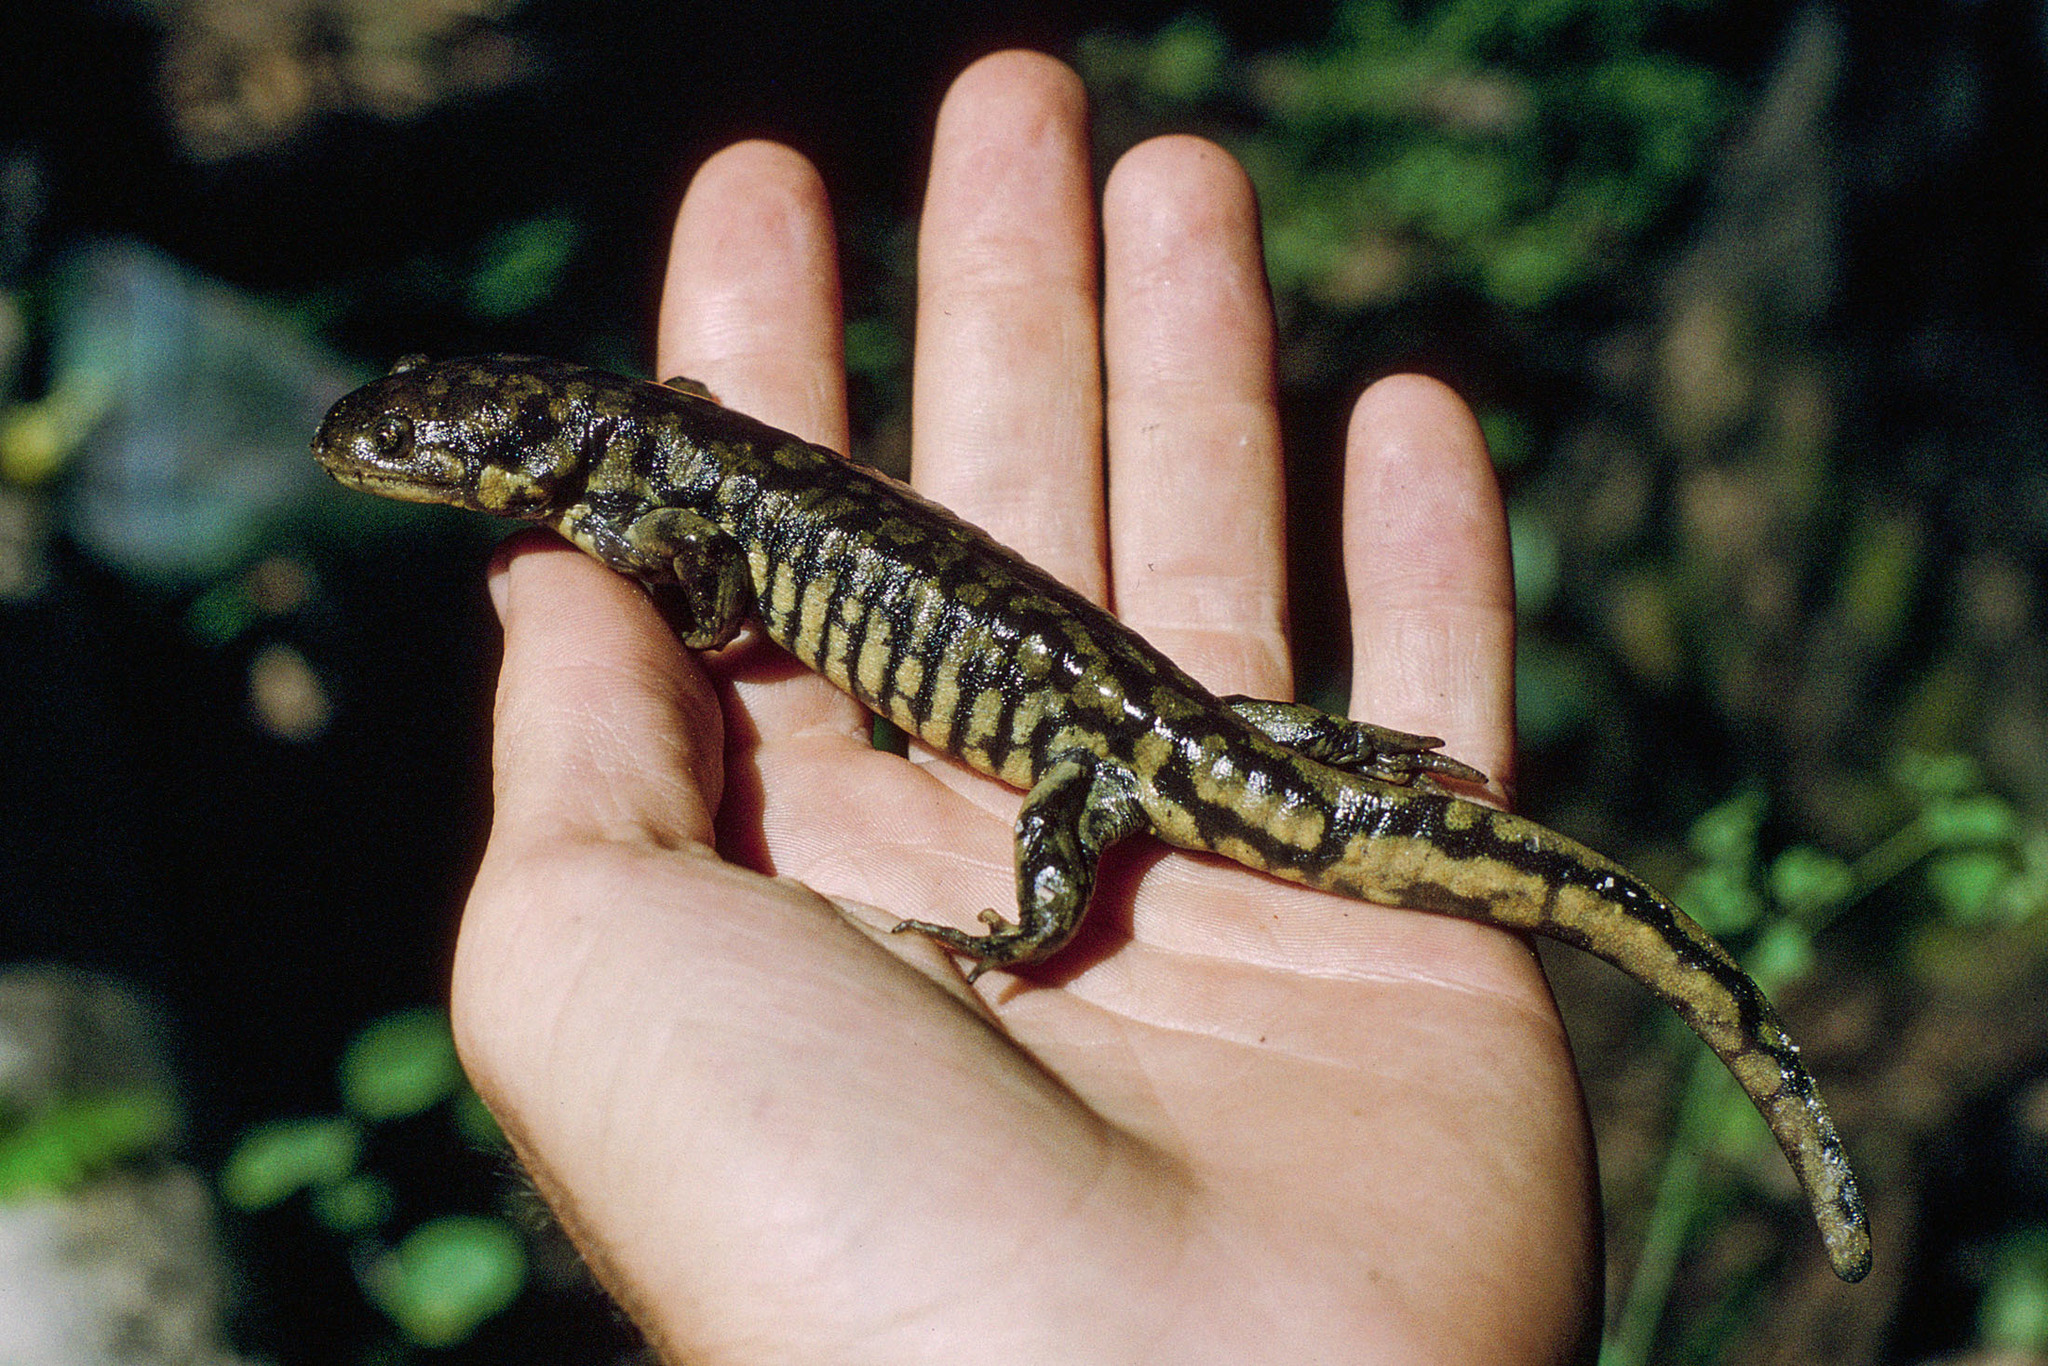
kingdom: Animalia
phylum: Chordata
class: Amphibia
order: Caudata
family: Ambystomatidae
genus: Ambystoma
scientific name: Ambystoma mavortium
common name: Western tiger salamander
